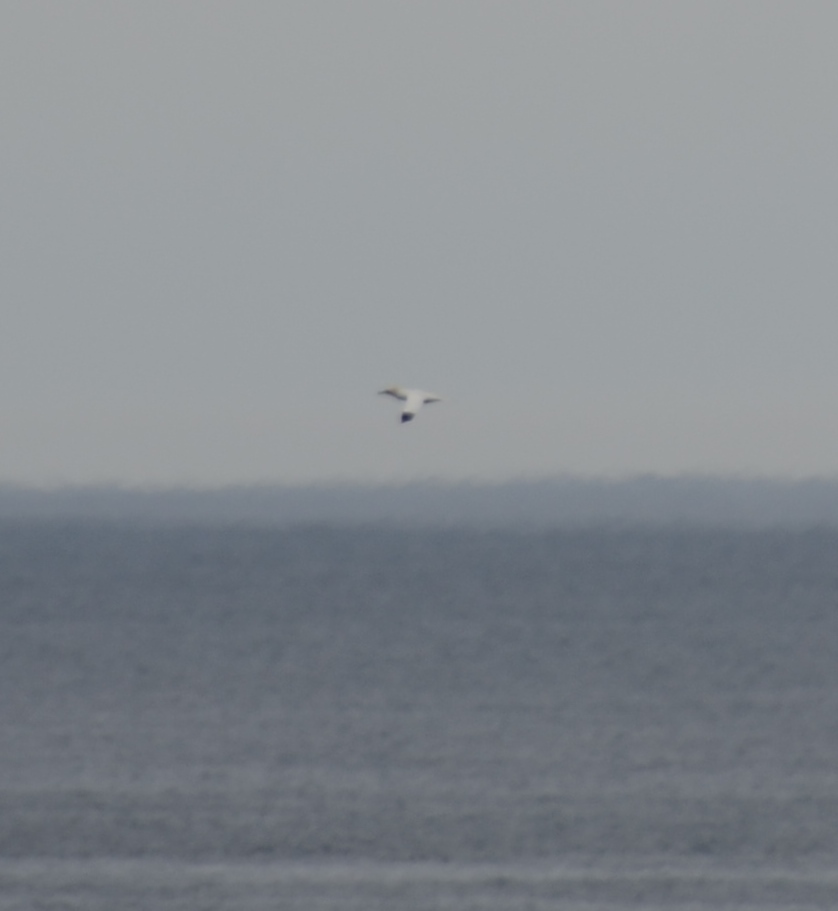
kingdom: Animalia
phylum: Chordata
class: Aves
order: Suliformes
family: Sulidae
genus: Morus
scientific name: Morus bassanus
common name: Northern gannet
